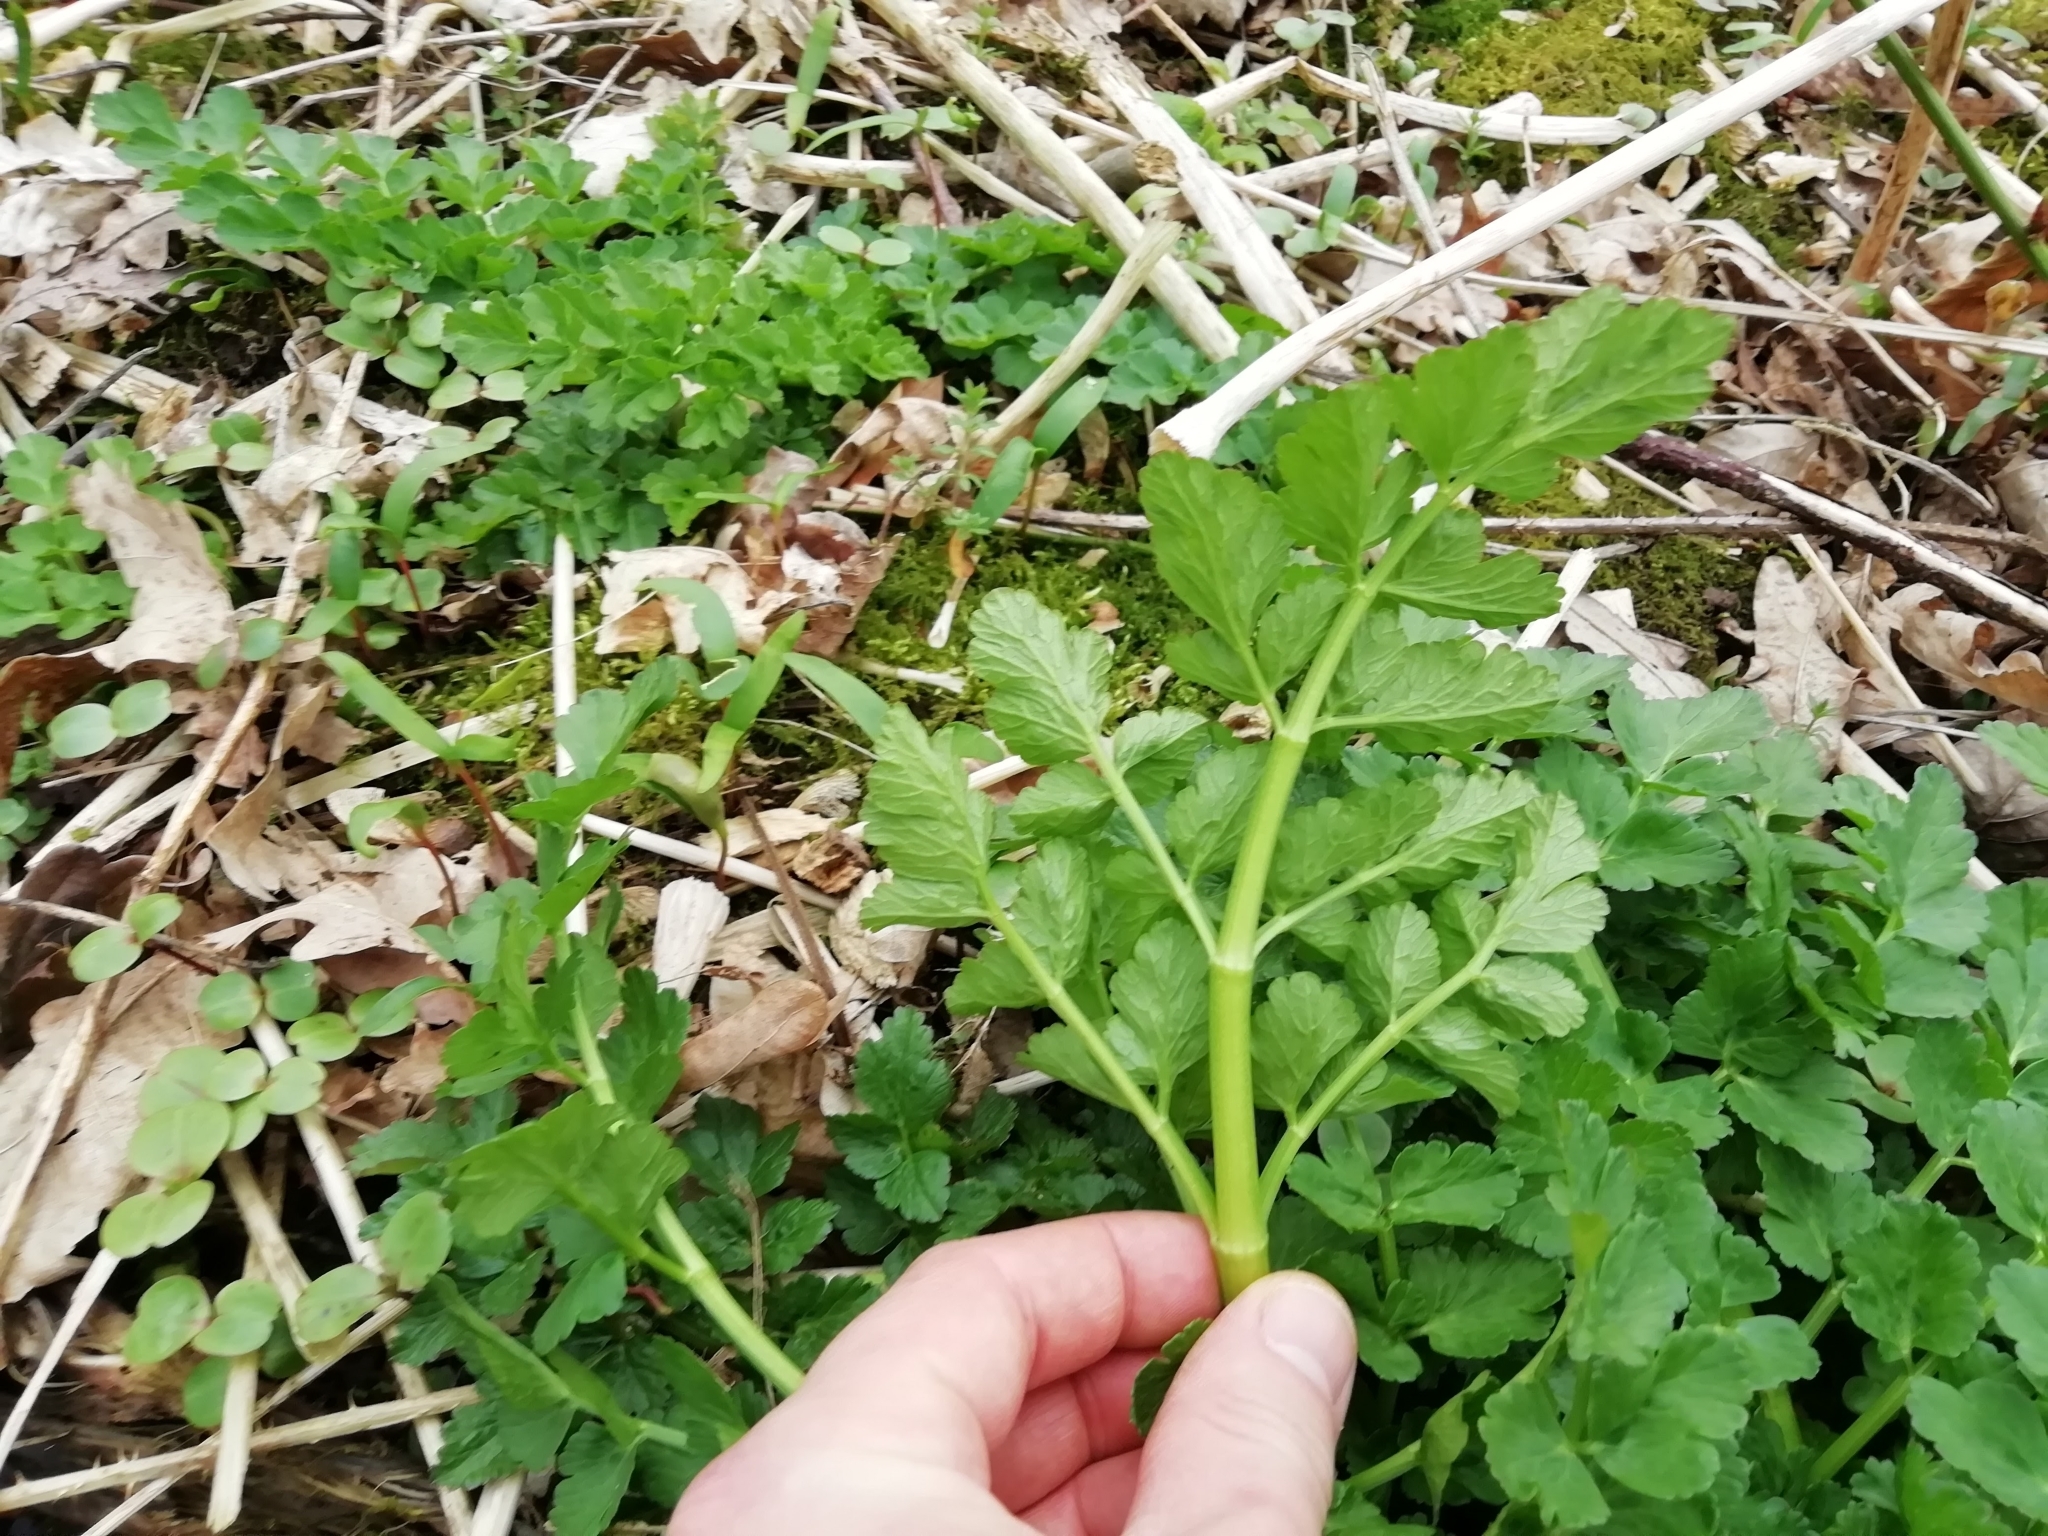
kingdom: Plantae
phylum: Tracheophyta
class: Magnoliopsida
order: Apiales
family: Apiaceae
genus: Oenanthe
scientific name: Oenanthe crocata
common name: Hemlock water-dropwort
